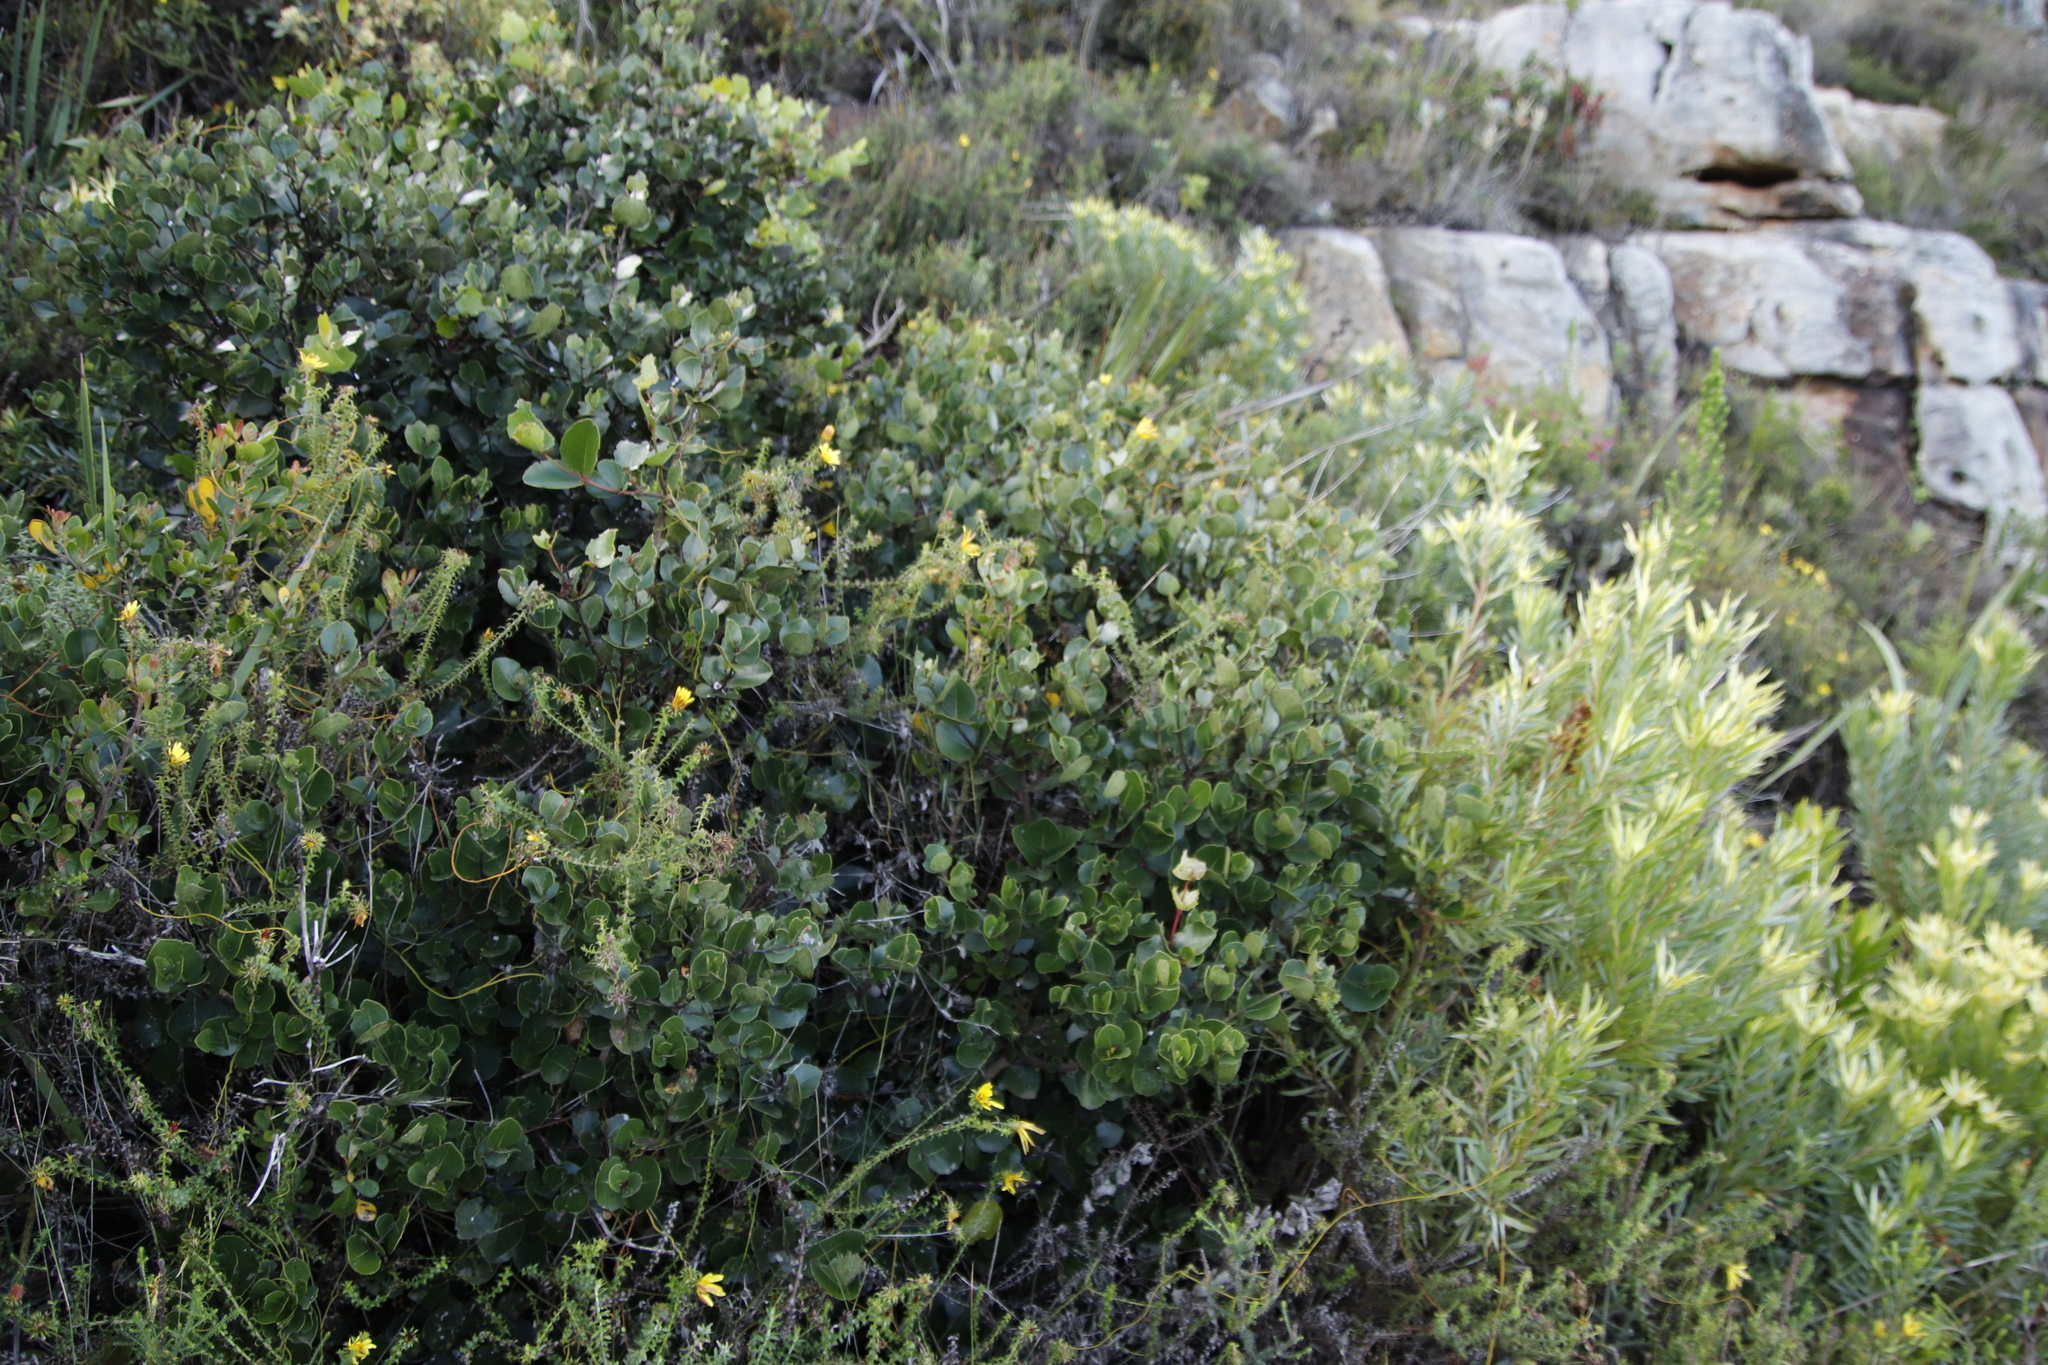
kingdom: Plantae
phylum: Tracheophyta
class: Magnoliopsida
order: Celastrales
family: Celastraceae
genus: Cassine
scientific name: Cassine peragua
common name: Cape saffron
